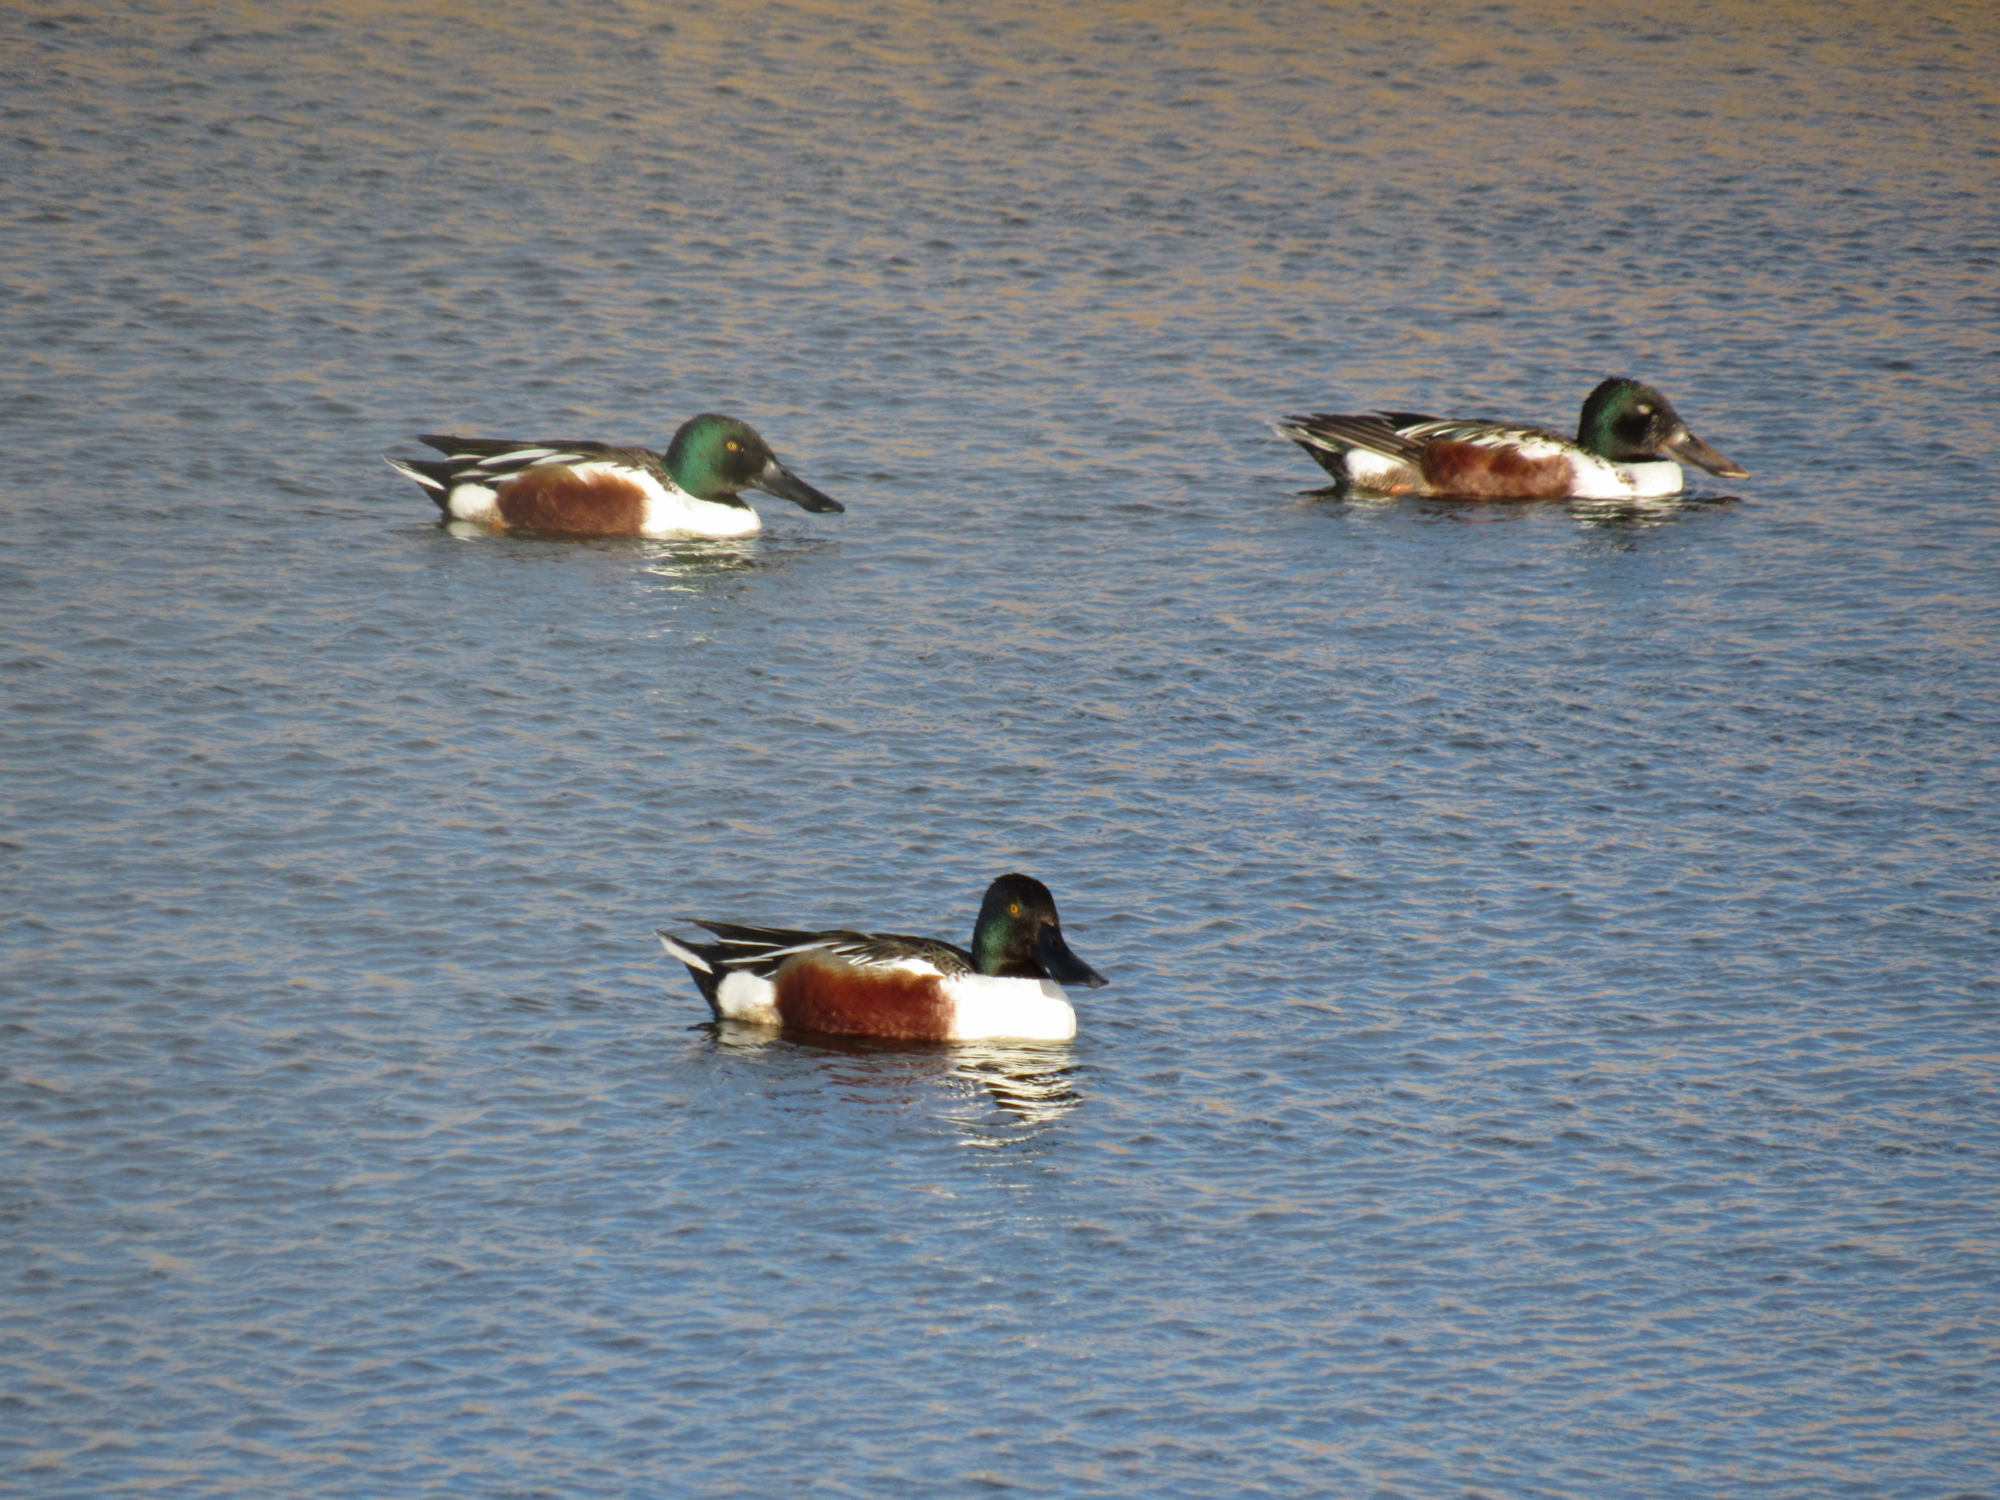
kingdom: Animalia
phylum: Chordata
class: Aves
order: Anseriformes
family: Anatidae
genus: Spatula
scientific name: Spatula clypeata
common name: Northern shoveler
